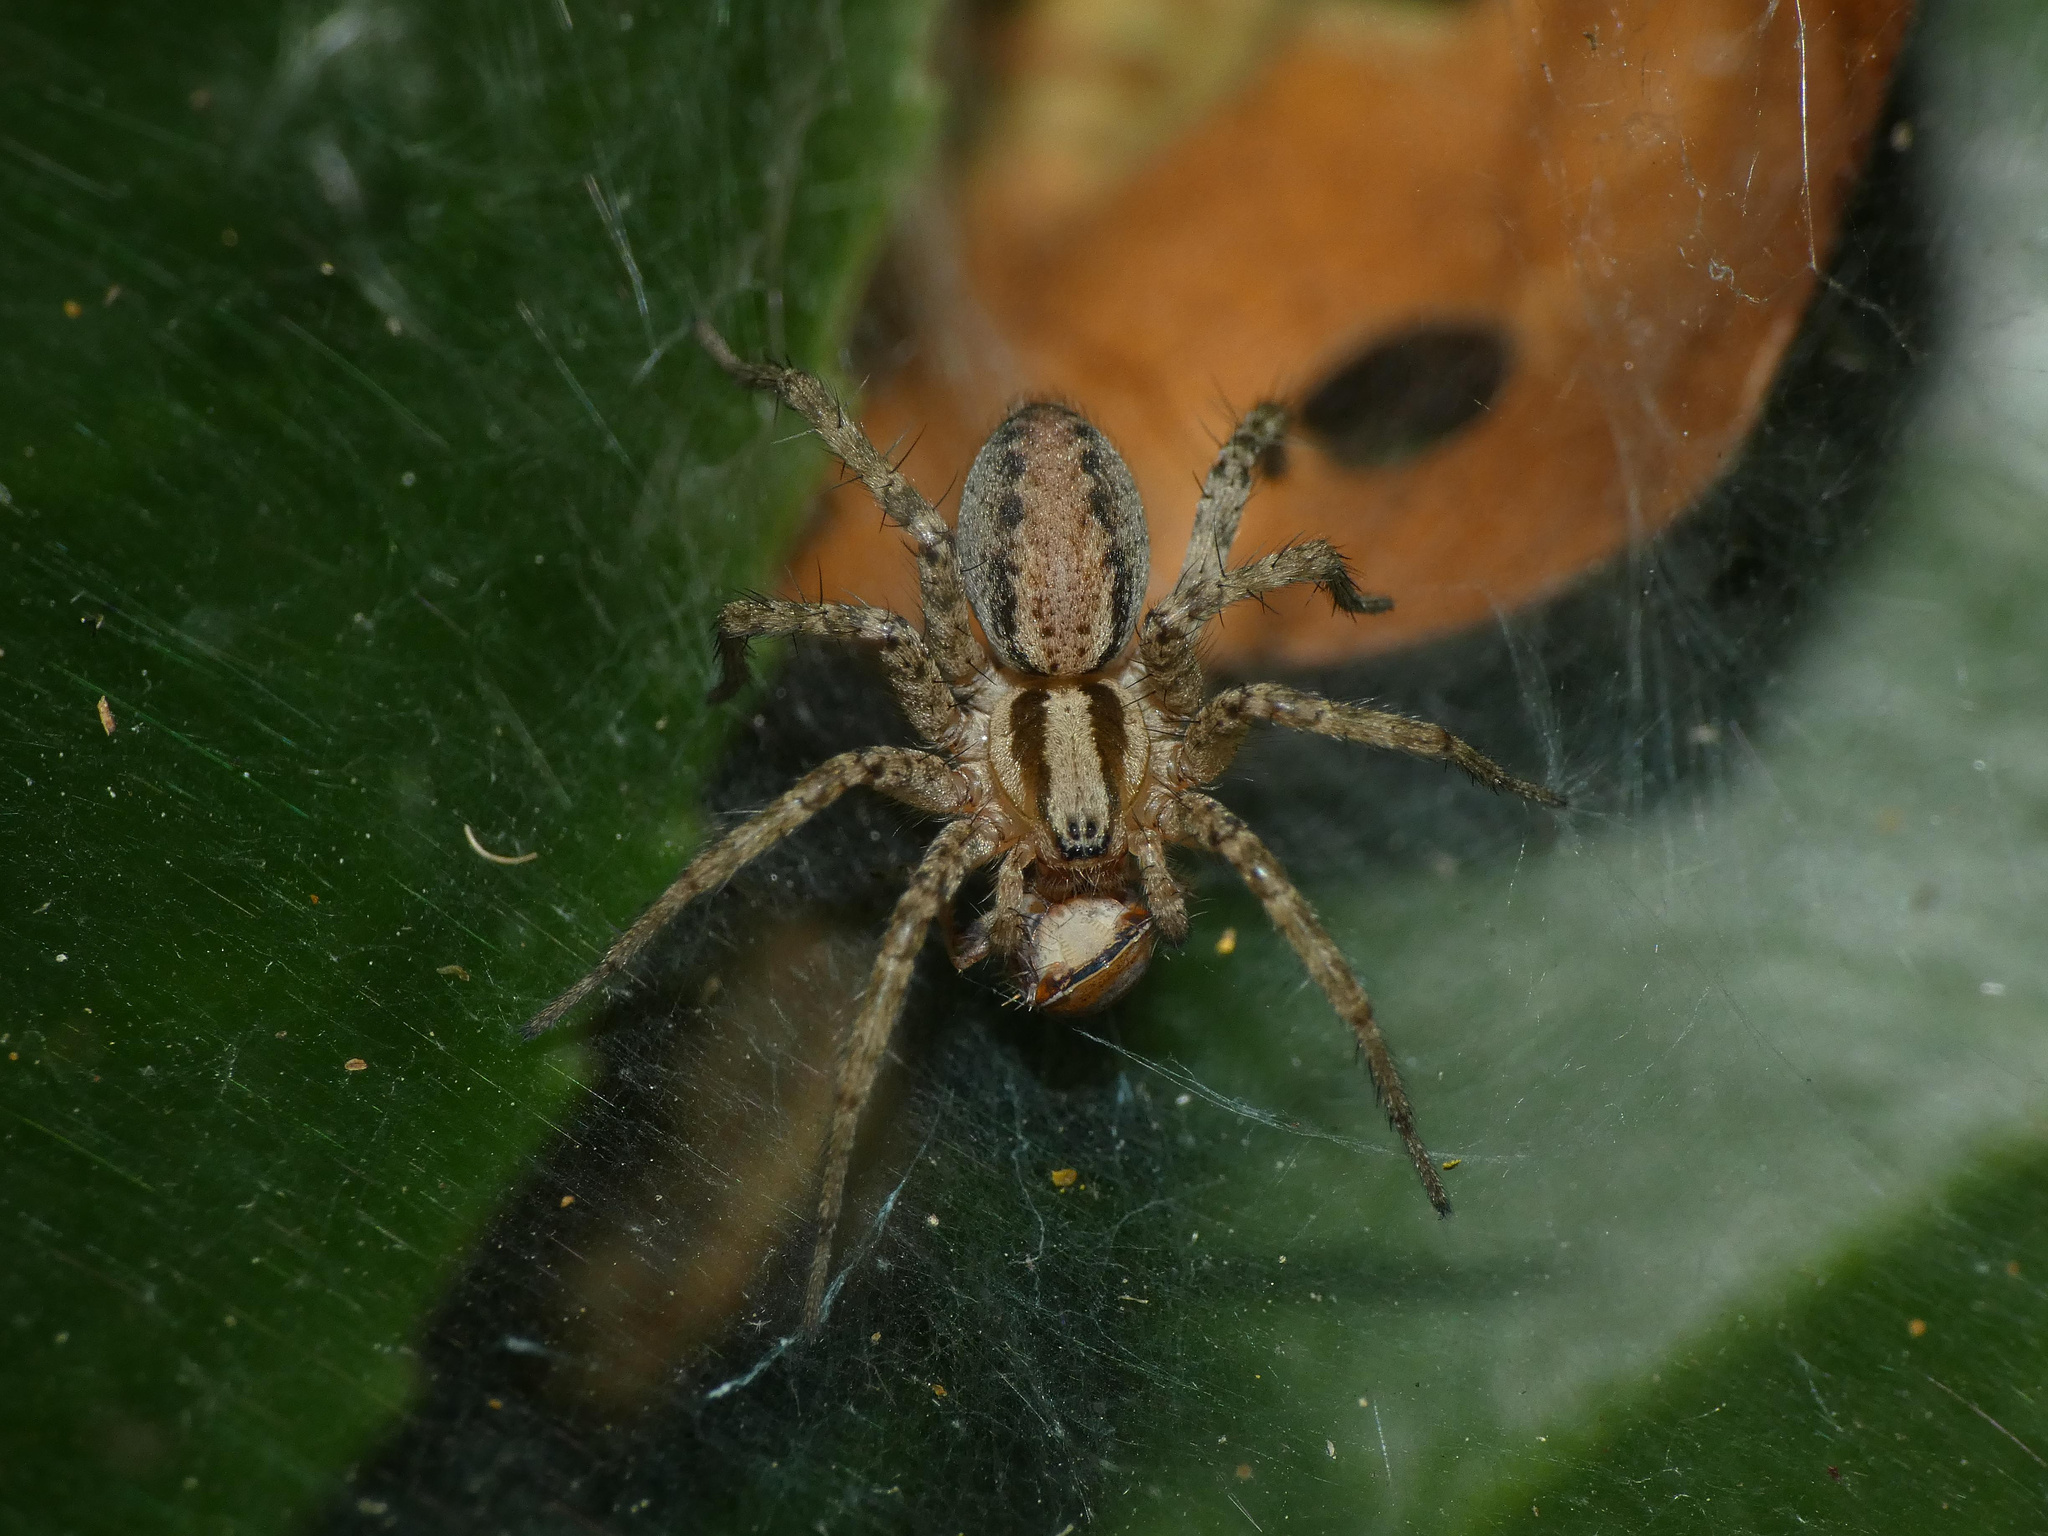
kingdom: Animalia
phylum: Arthropoda
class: Arachnida
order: Araneae
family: Agelenidae
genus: Hololena
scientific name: Hololena
